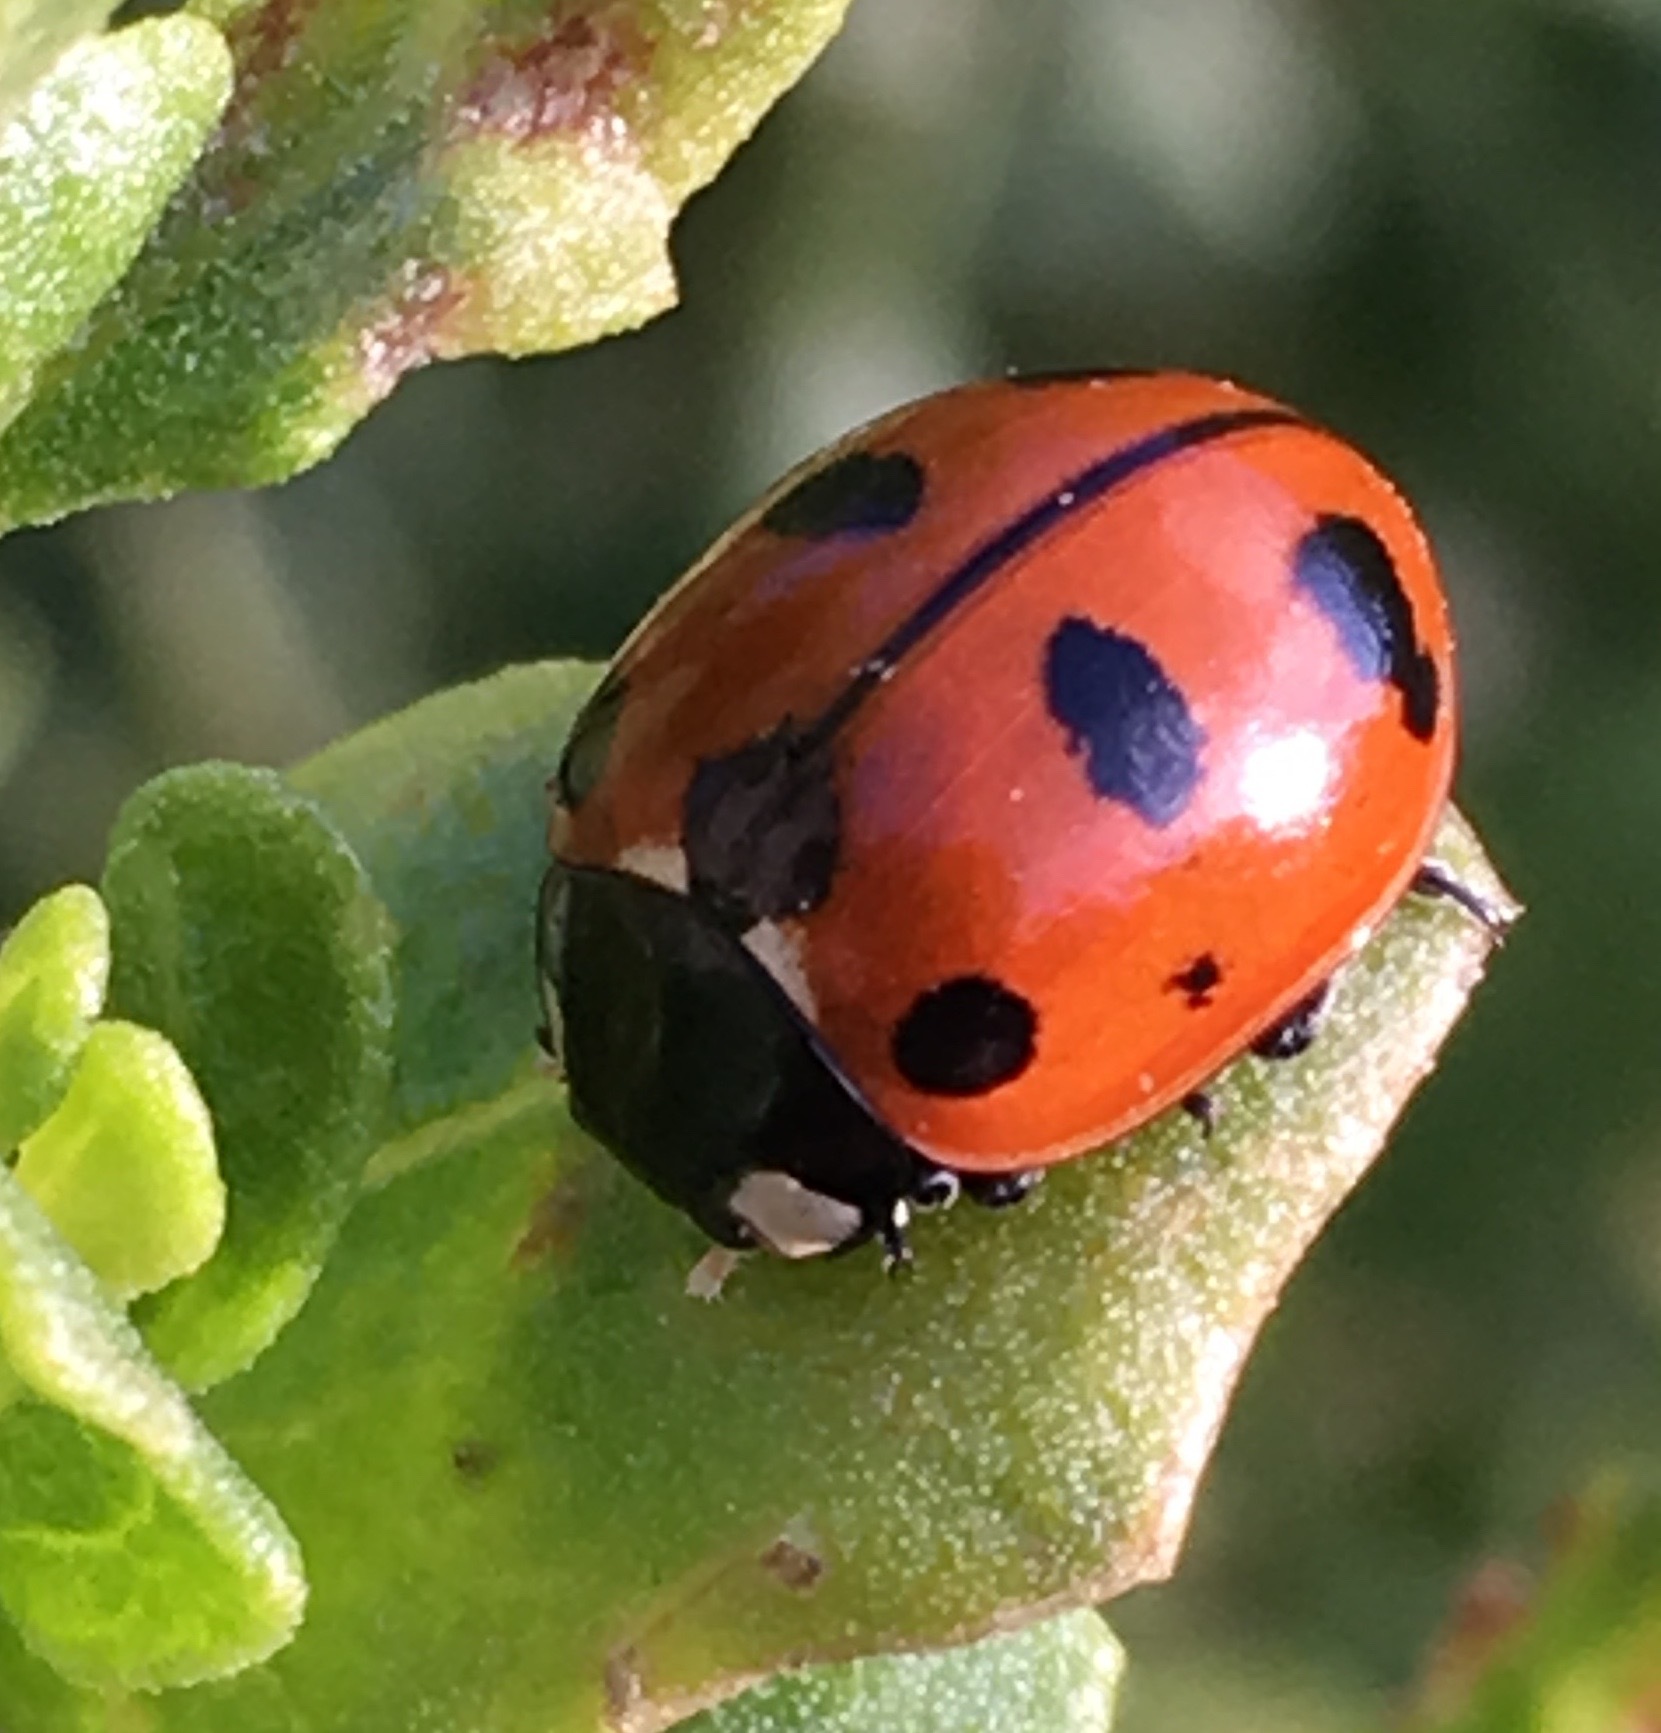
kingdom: Animalia
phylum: Arthropoda
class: Insecta
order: Coleoptera
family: Coccinellidae
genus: Coccinella
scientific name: Coccinella californica
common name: Lady beetle
